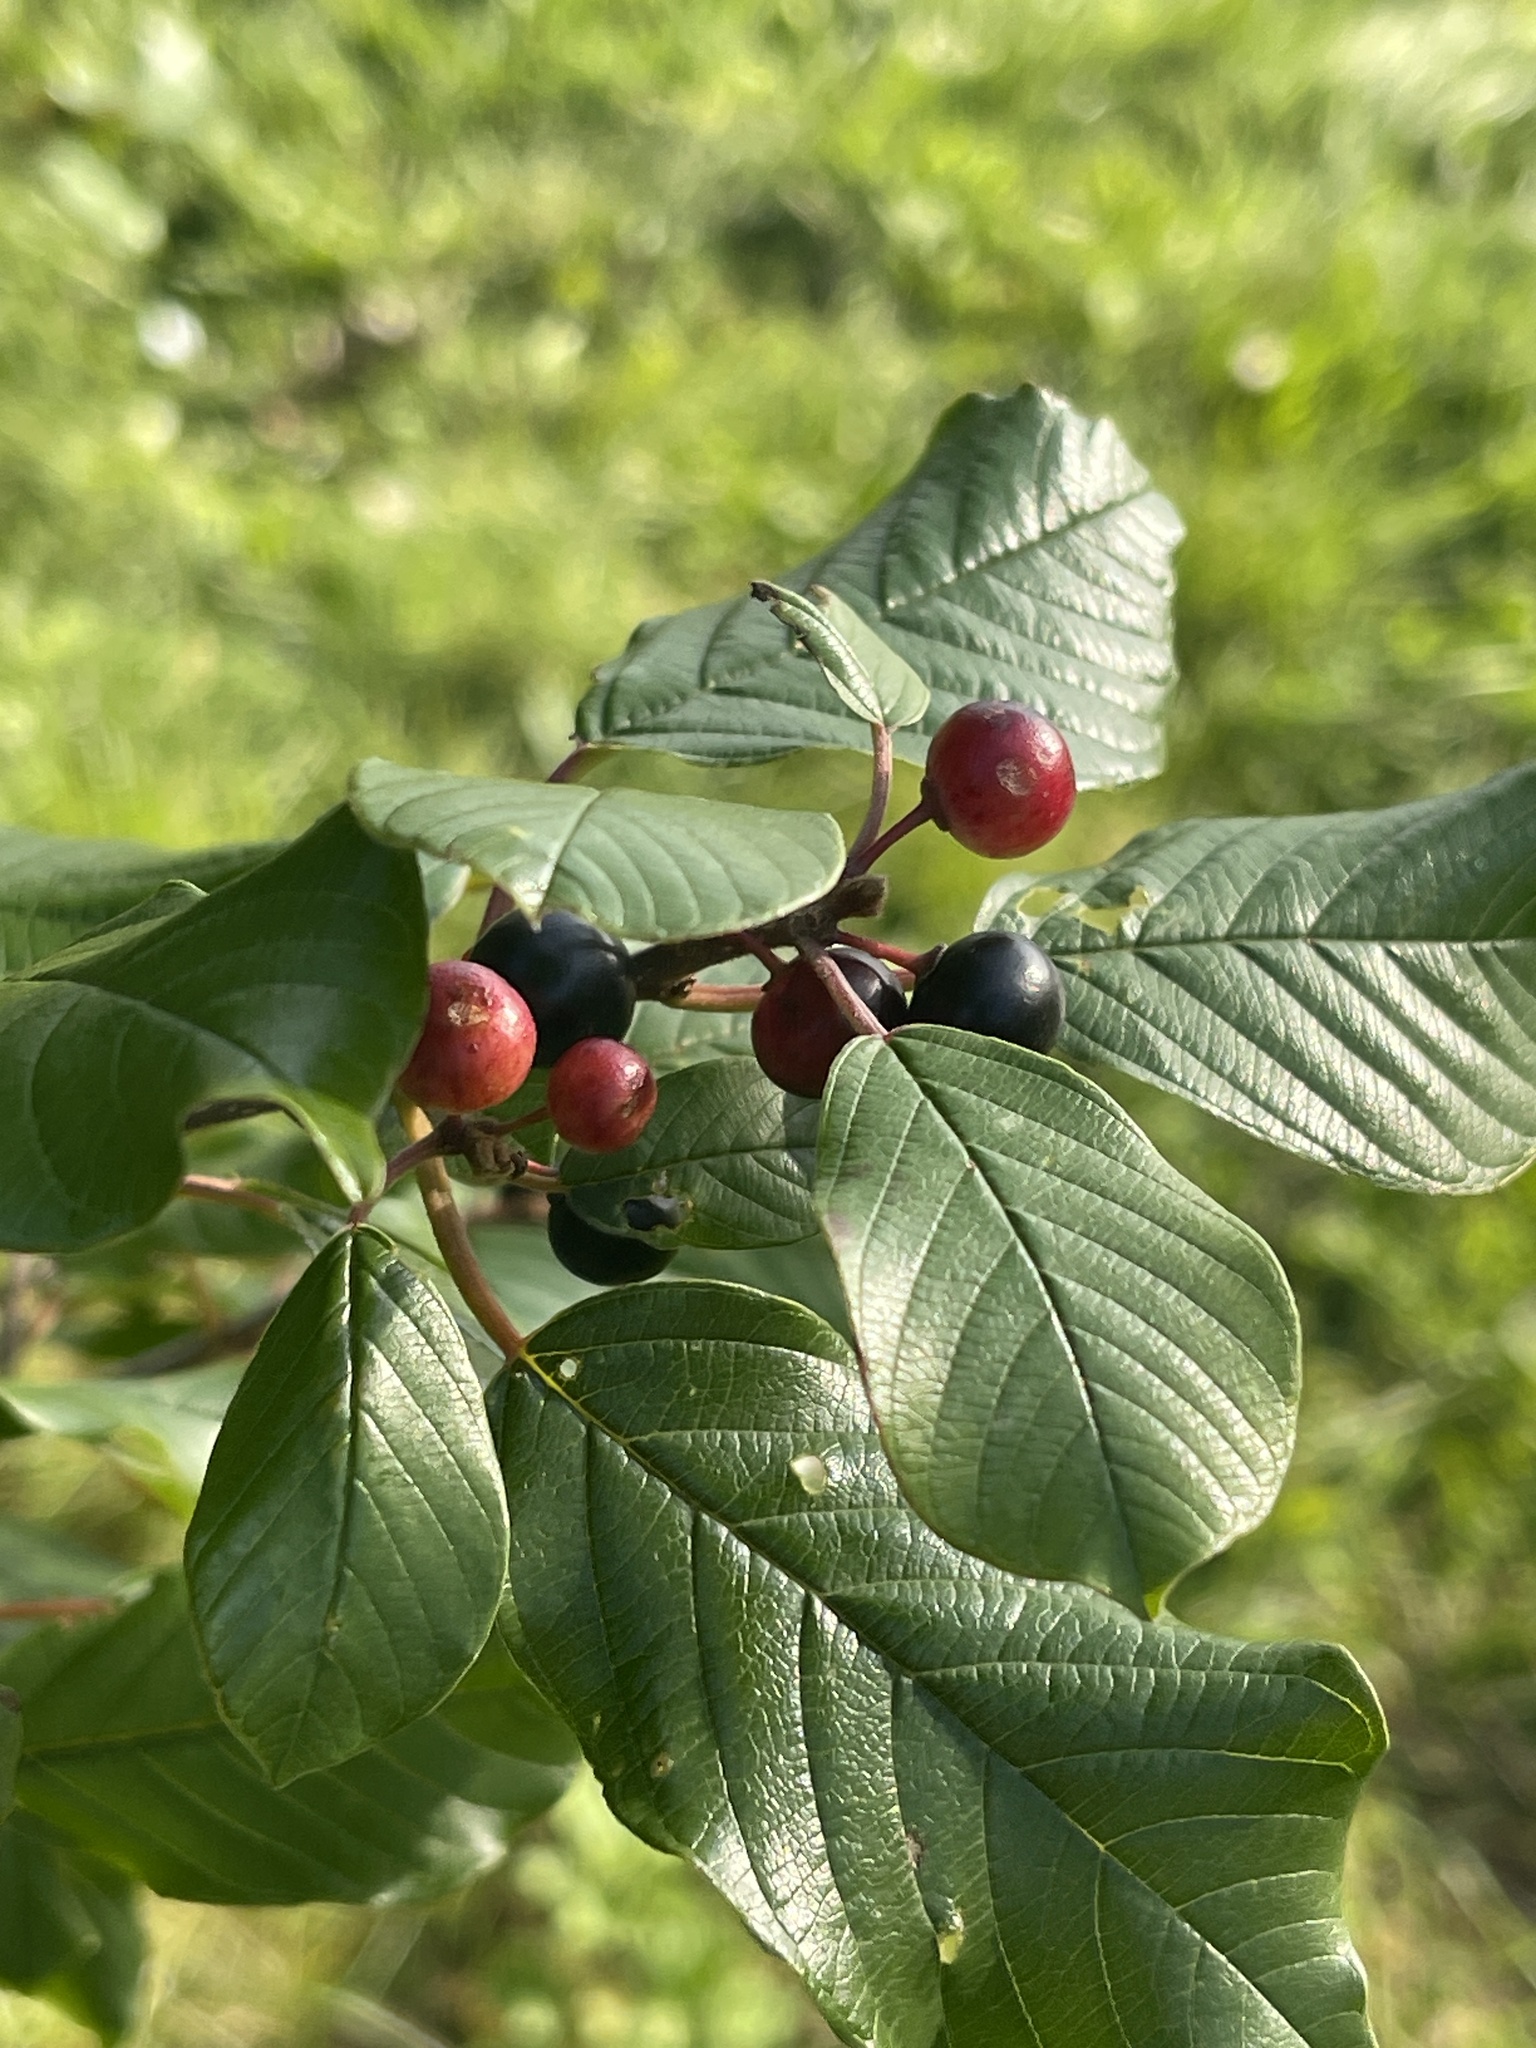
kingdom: Plantae
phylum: Tracheophyta
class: Magnoliopsida
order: Rosales
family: Rhamnaceae
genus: Frangula
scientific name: Frangula alnus
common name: Alder buckthorn
